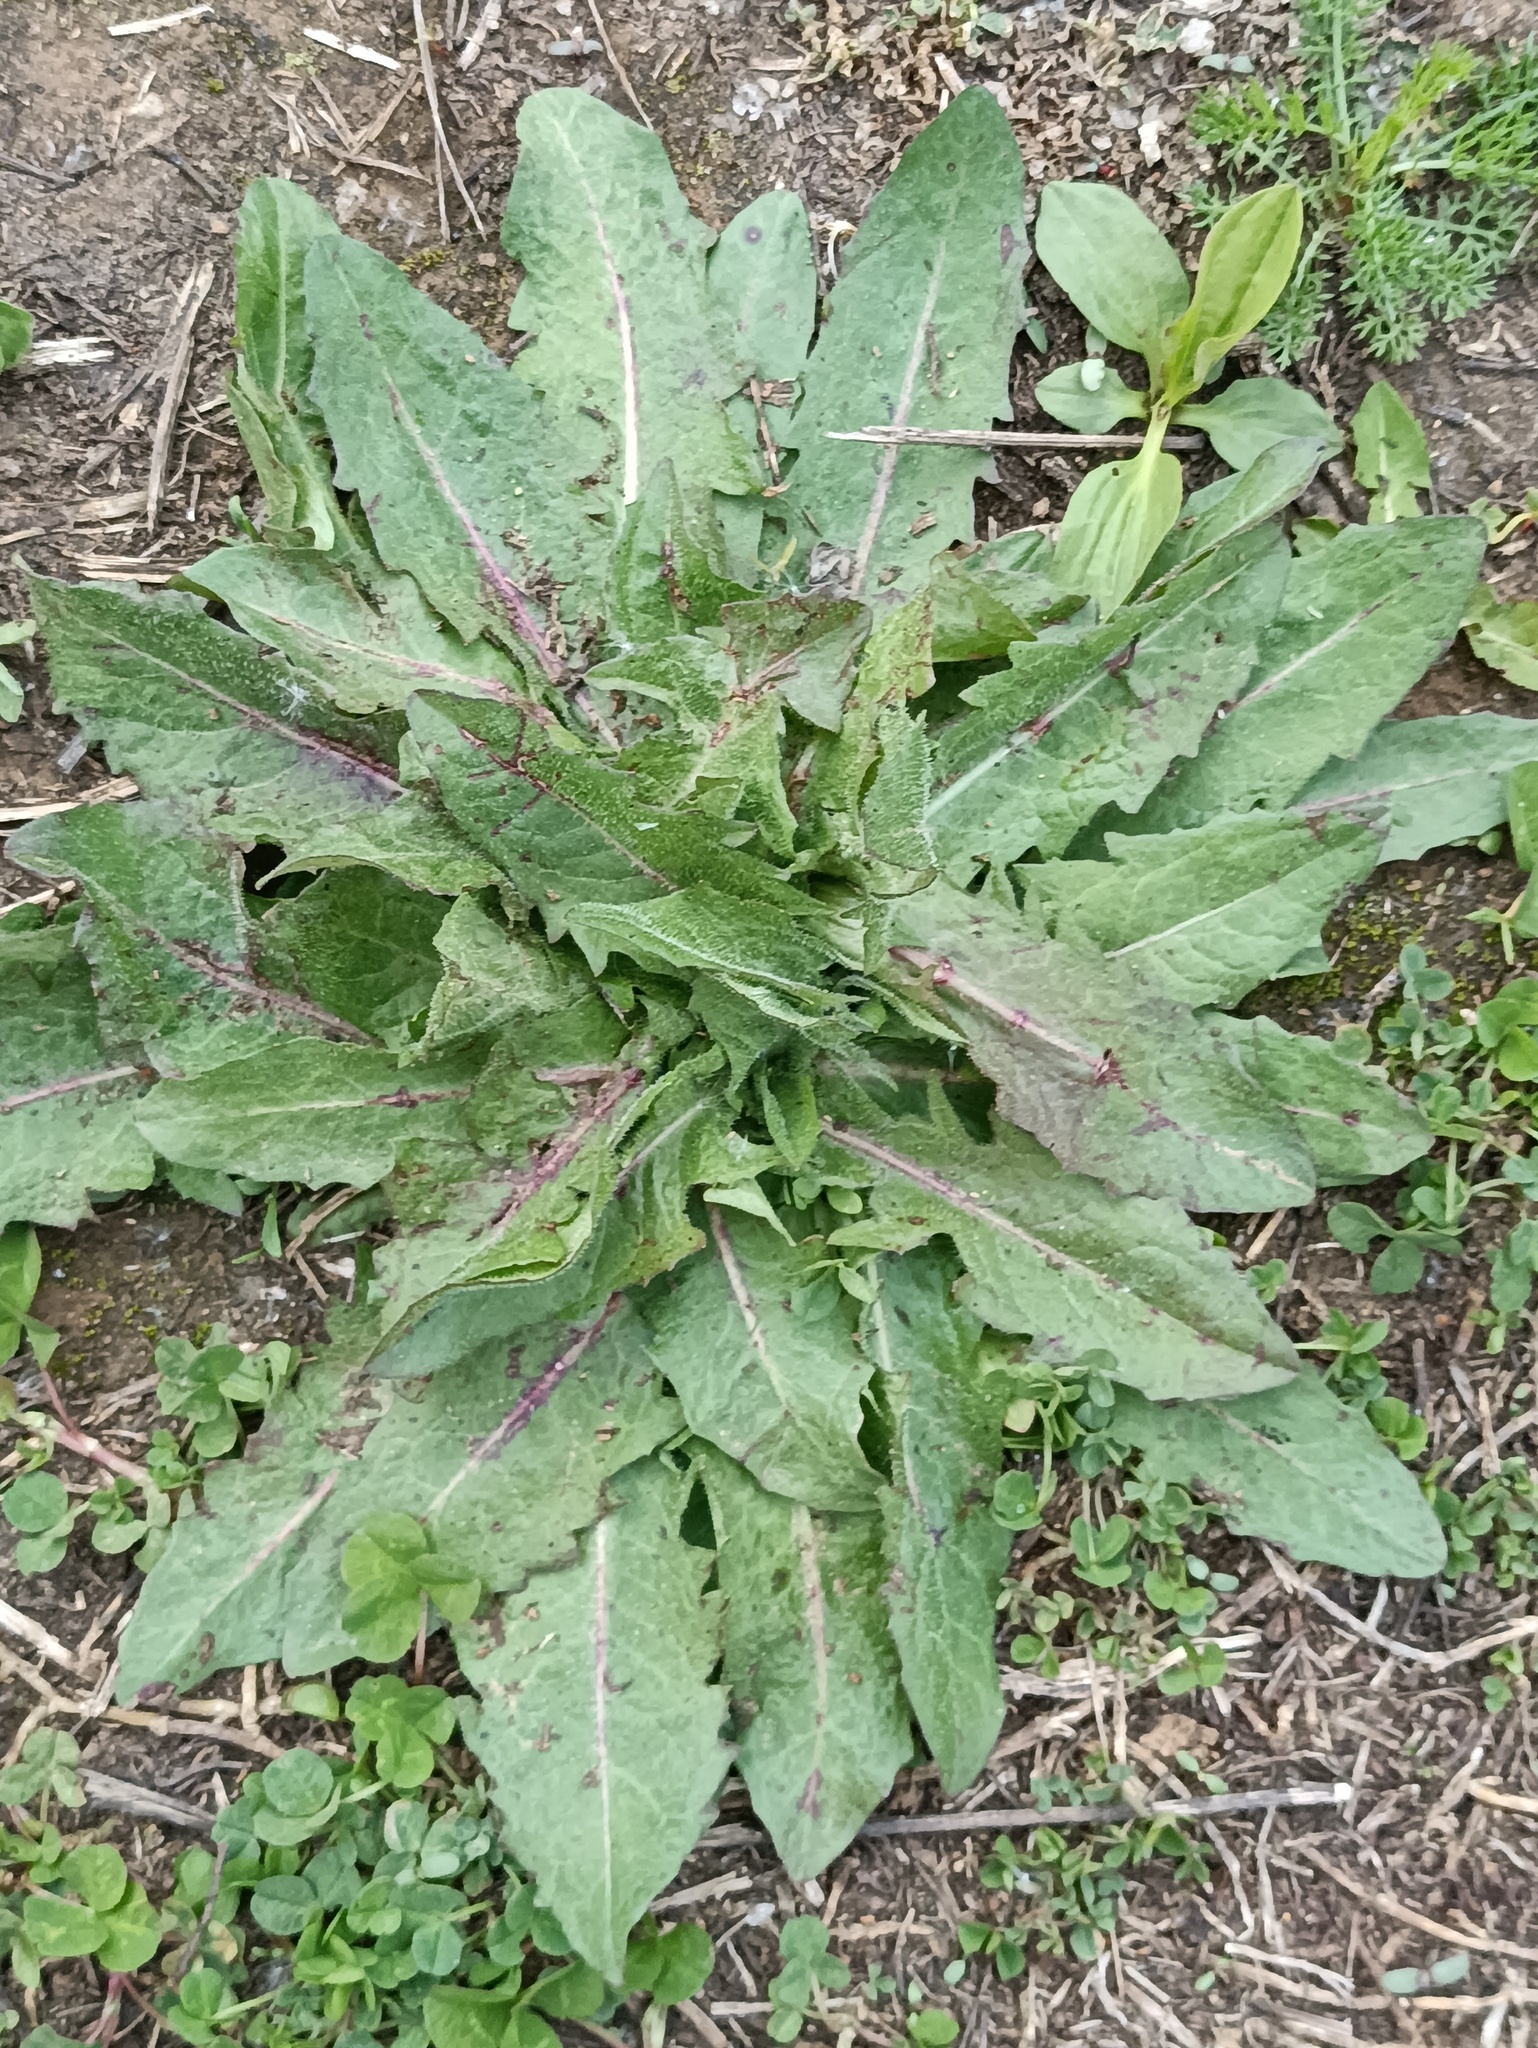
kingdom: Plantae
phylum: Tracheophyta
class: Magnoliopsida
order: Asterales
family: Asteraceae
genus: Cichorium
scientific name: Cichorium intybus
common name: Chicory
